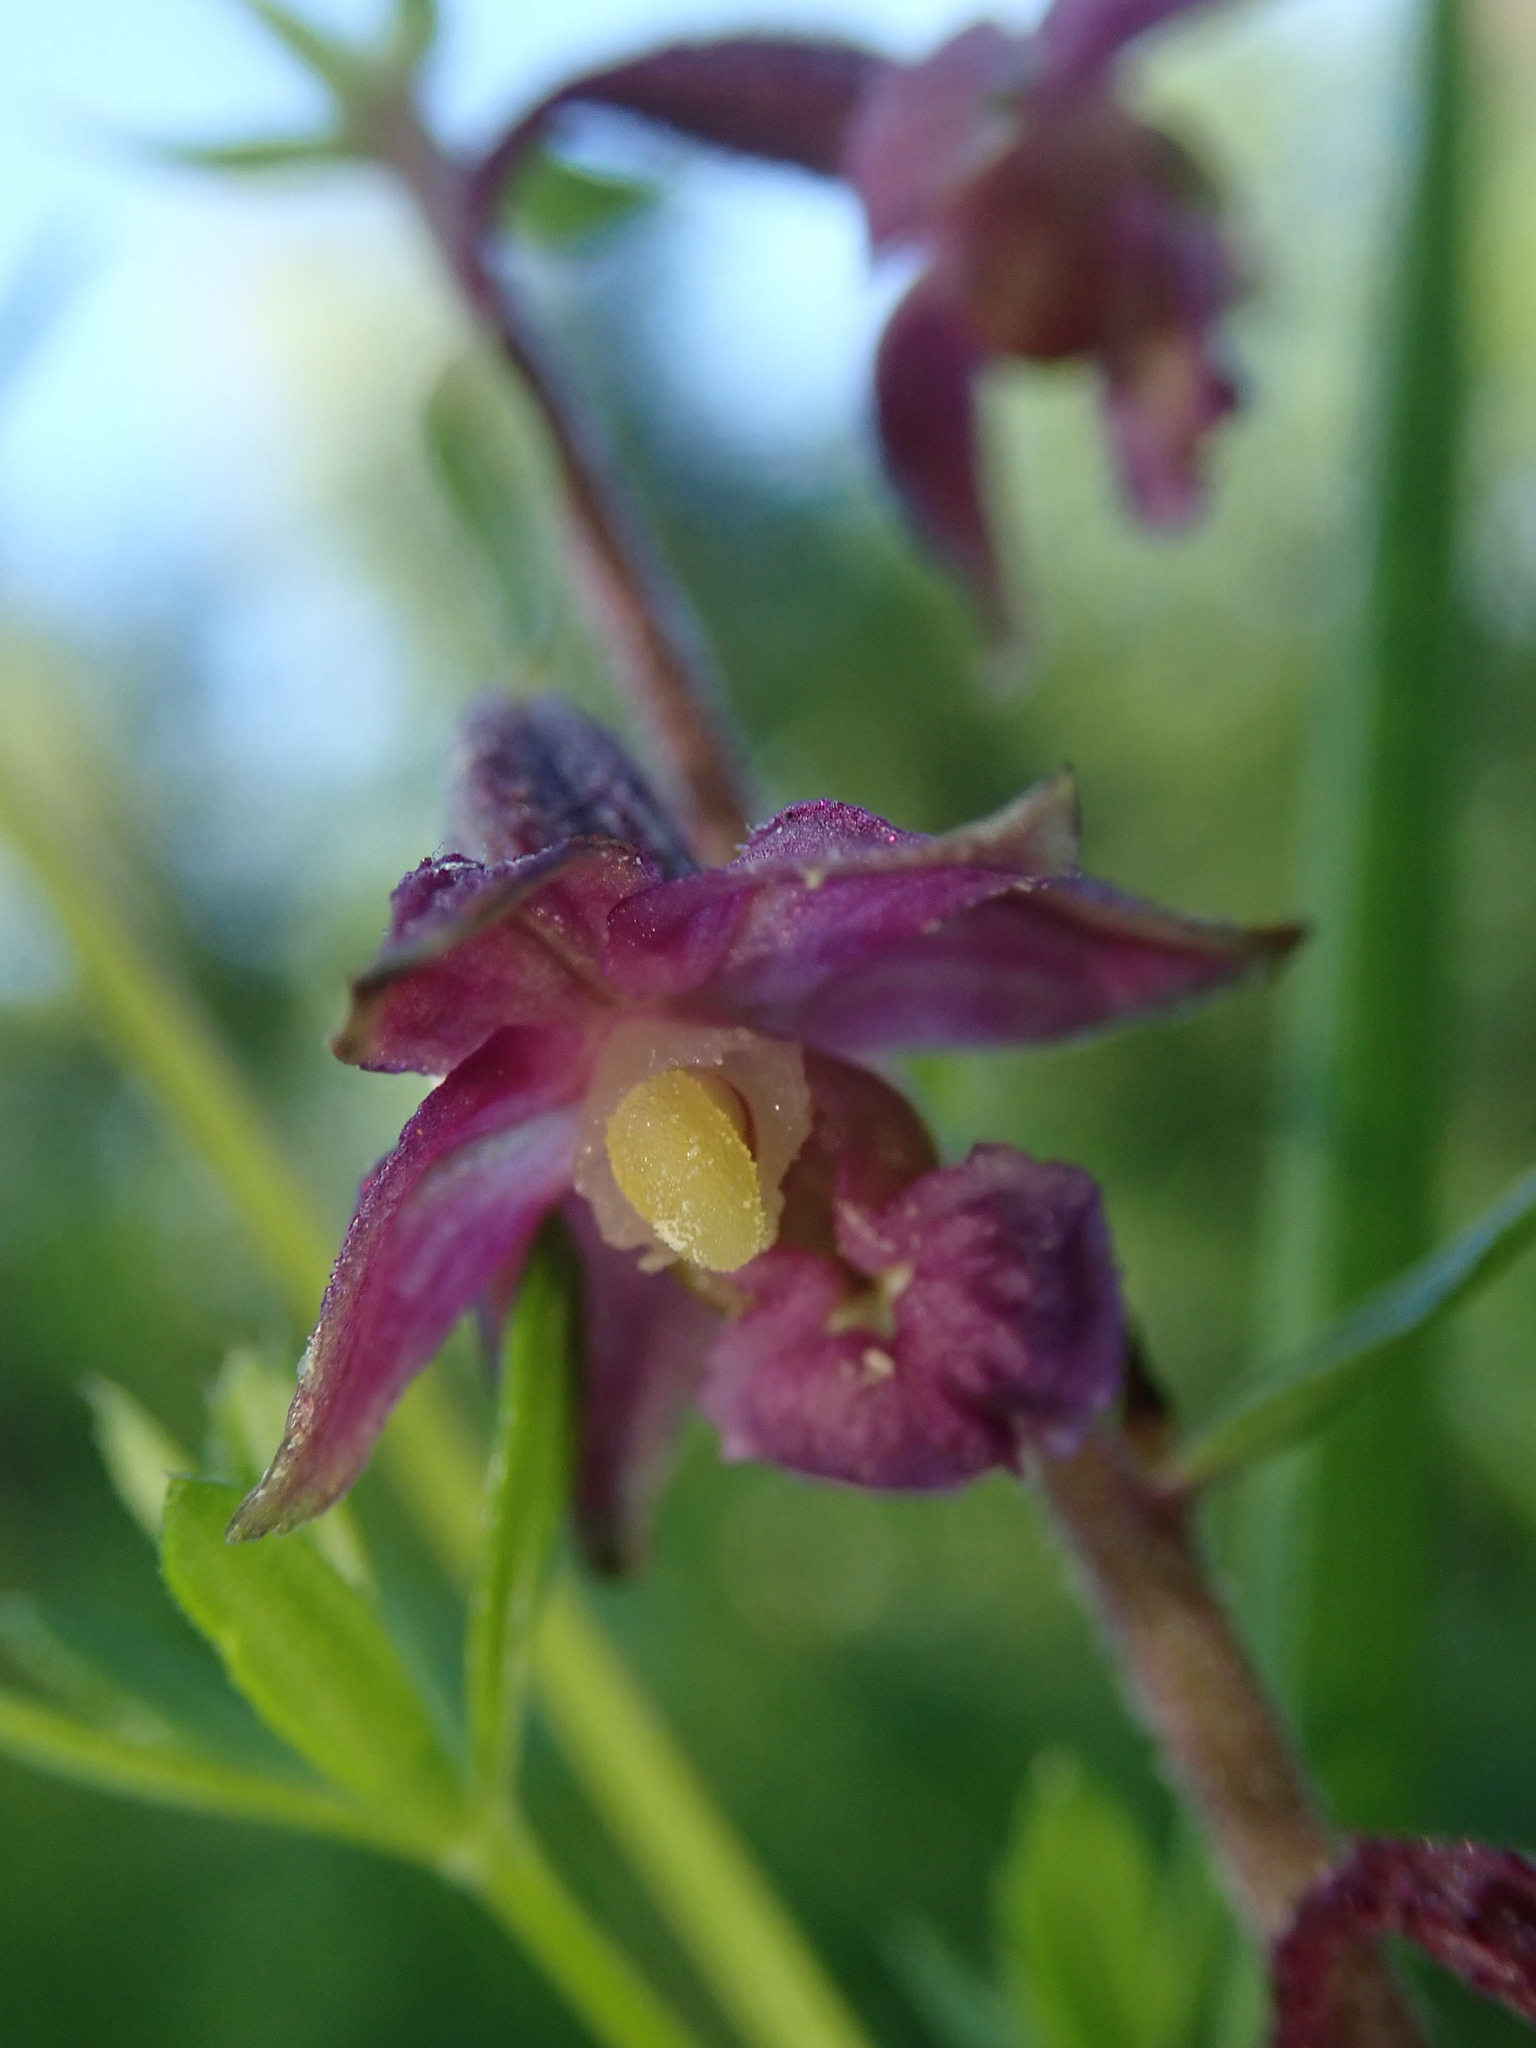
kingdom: Plantae
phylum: Tracheophyta
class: Liliopsida
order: Asparagales
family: Orchidaceae
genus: Epipactis
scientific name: Epipactis atrorubens
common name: Dark-red helleborine
